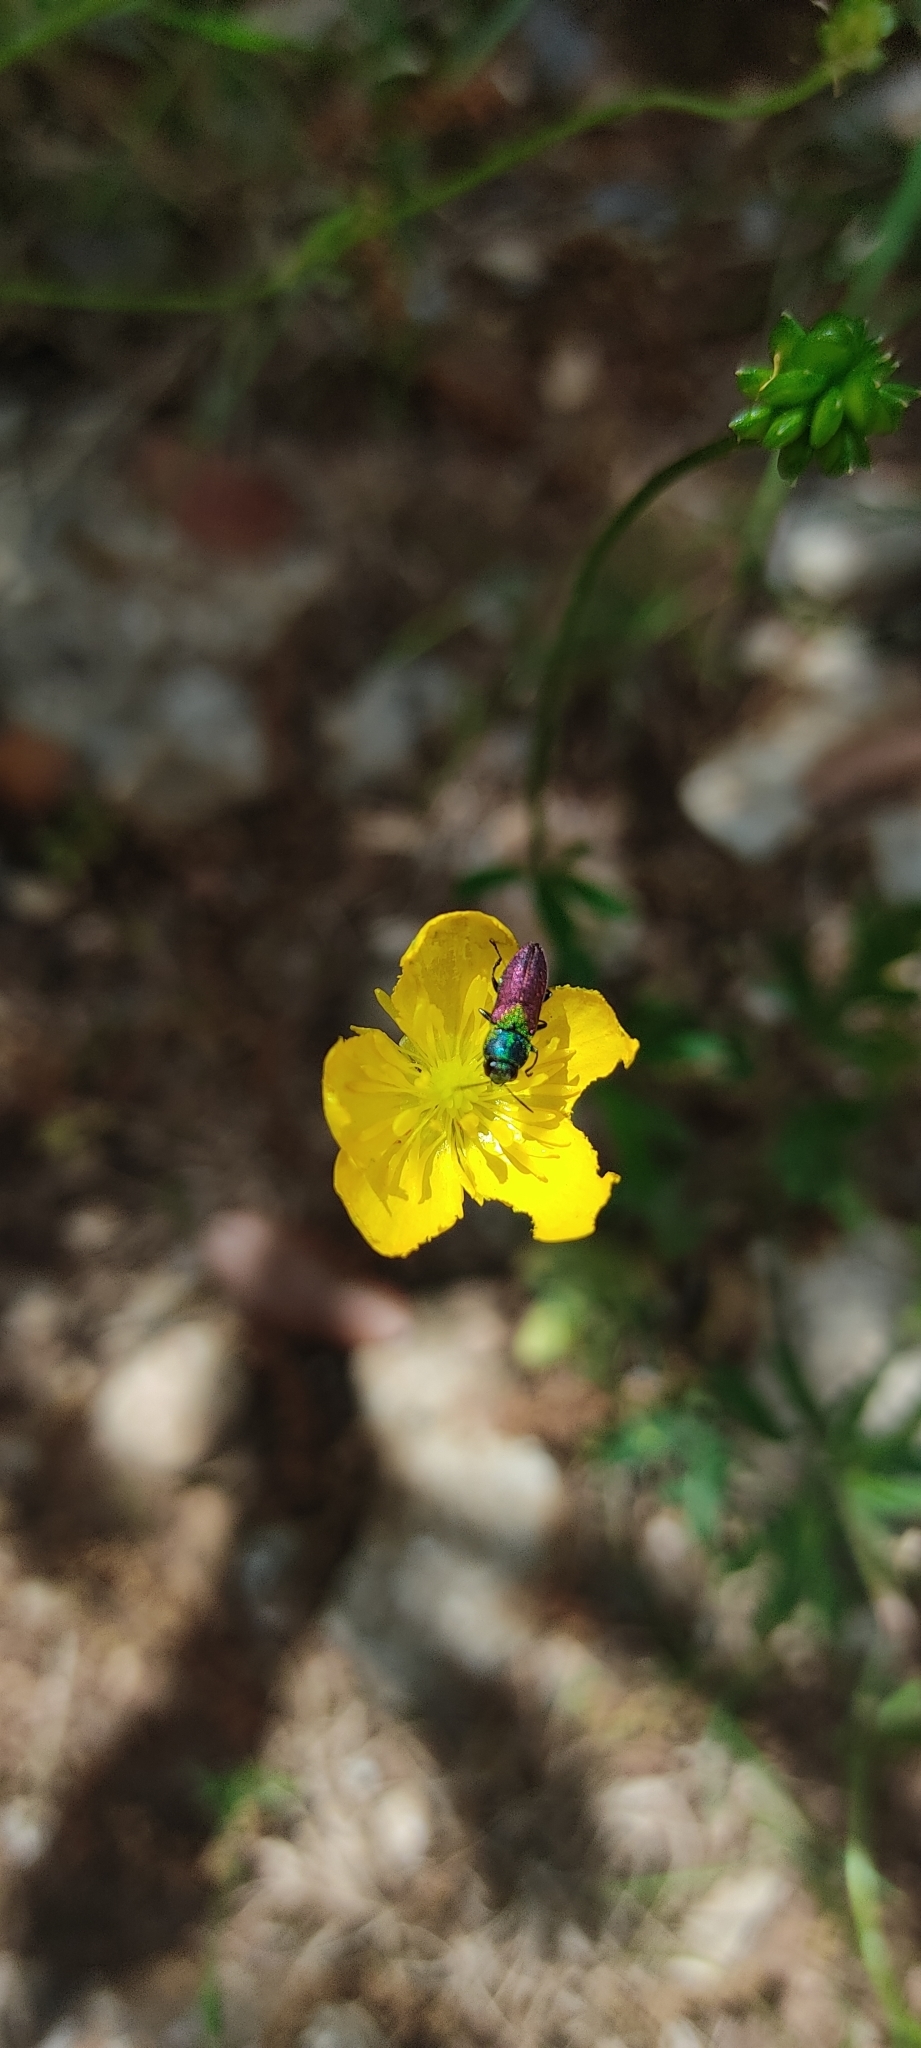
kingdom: Animalia
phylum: Arthropoda
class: Insecta
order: Coleoptera
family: Buprestidae
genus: Anthaxia
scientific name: Anthaxia salicis
